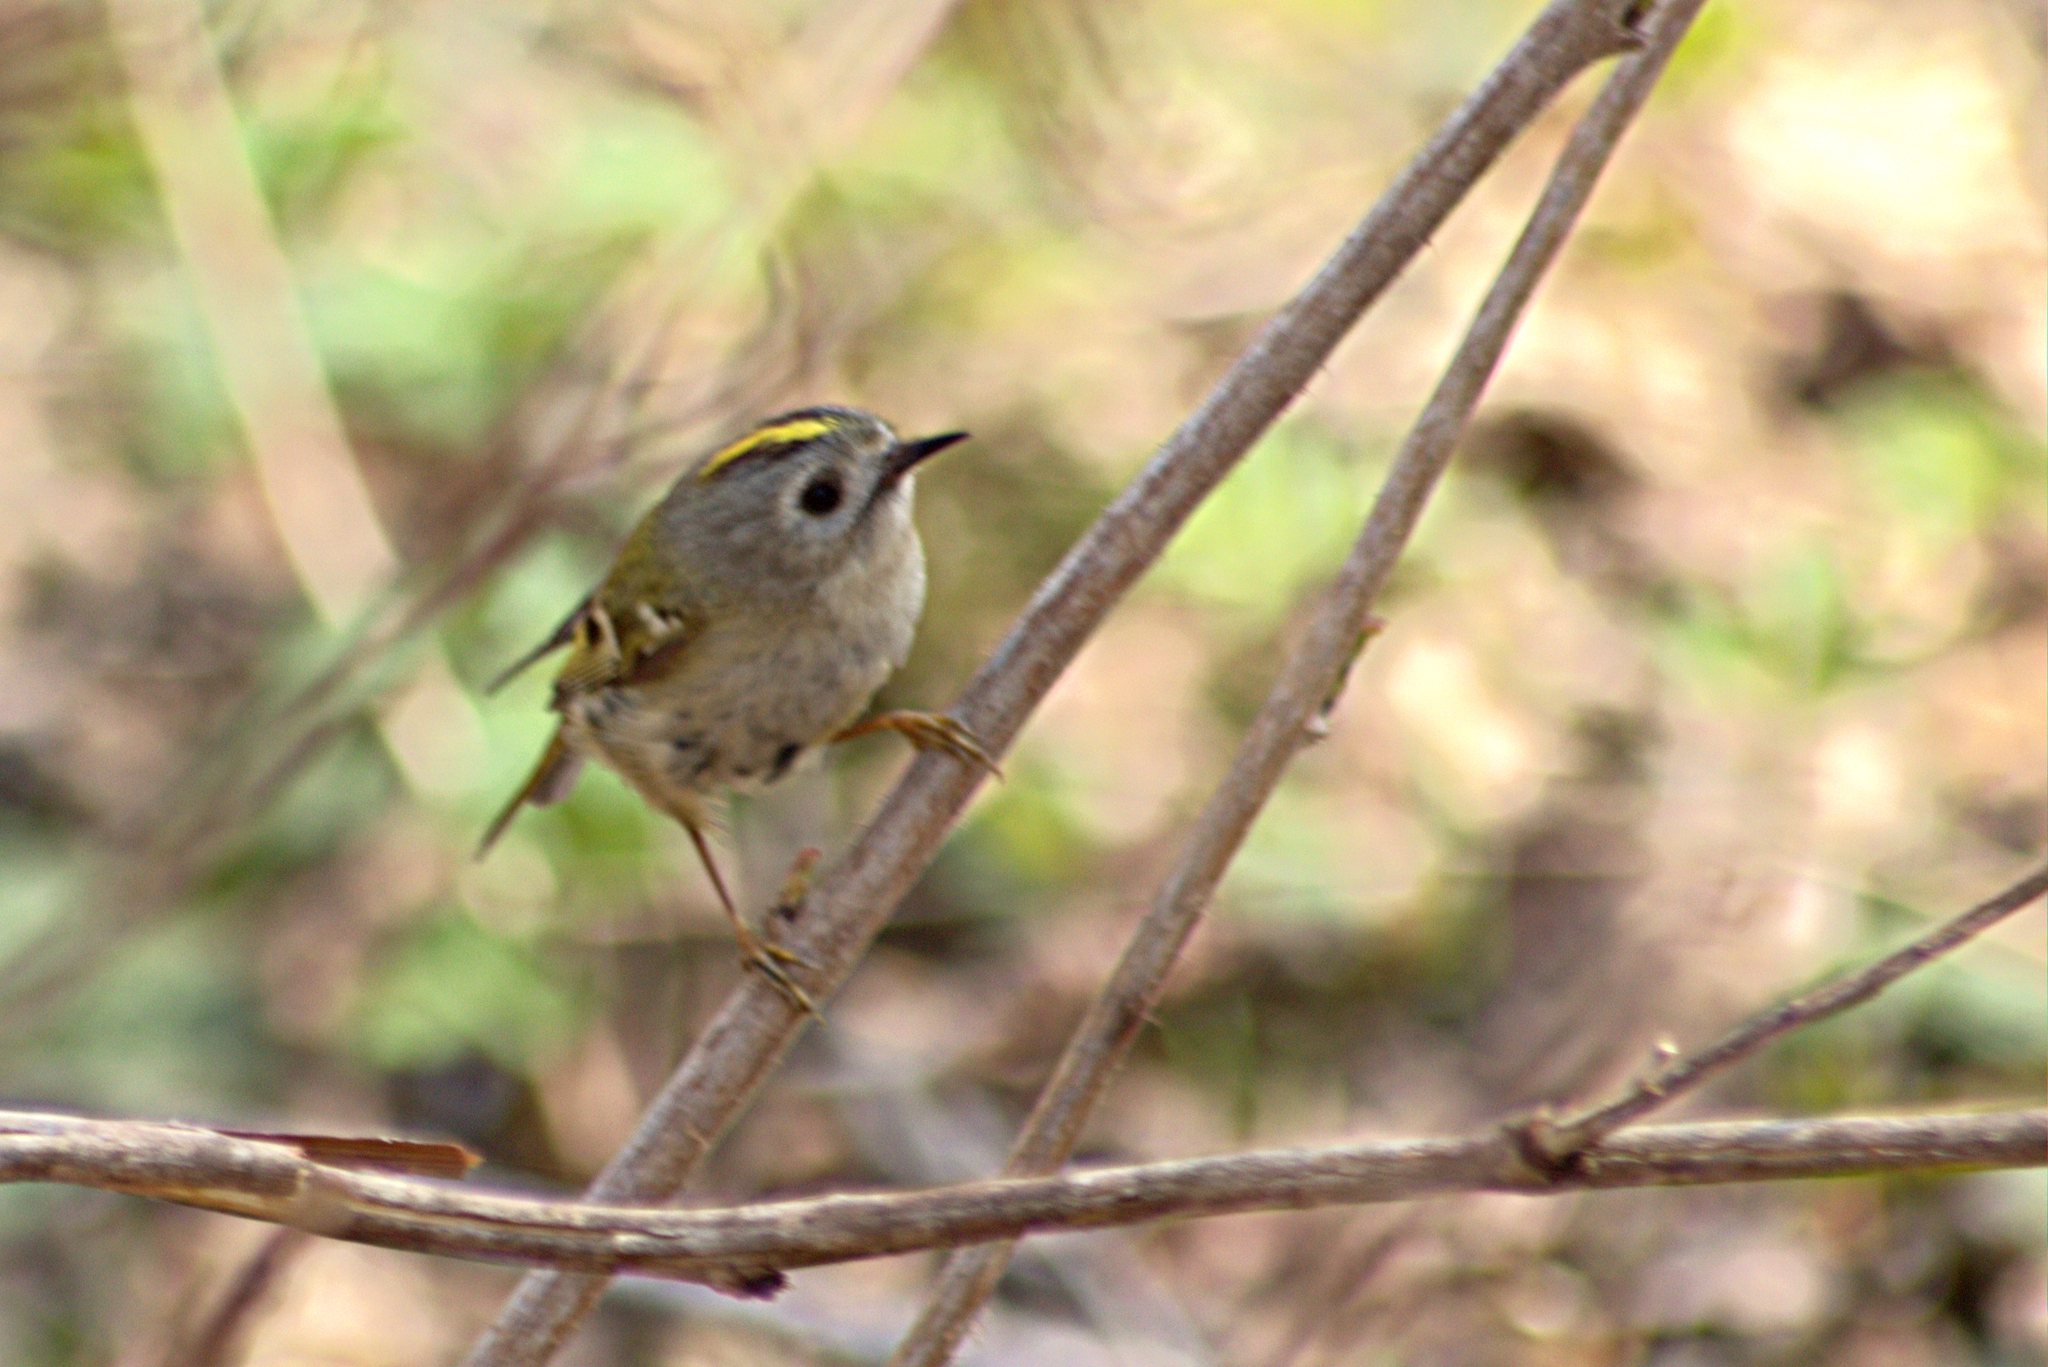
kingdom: Animalia
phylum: Chordata
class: Aves
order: Passeriformes
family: Regulidae
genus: Regulus
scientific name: Regulus regulus
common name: Goldcrest
